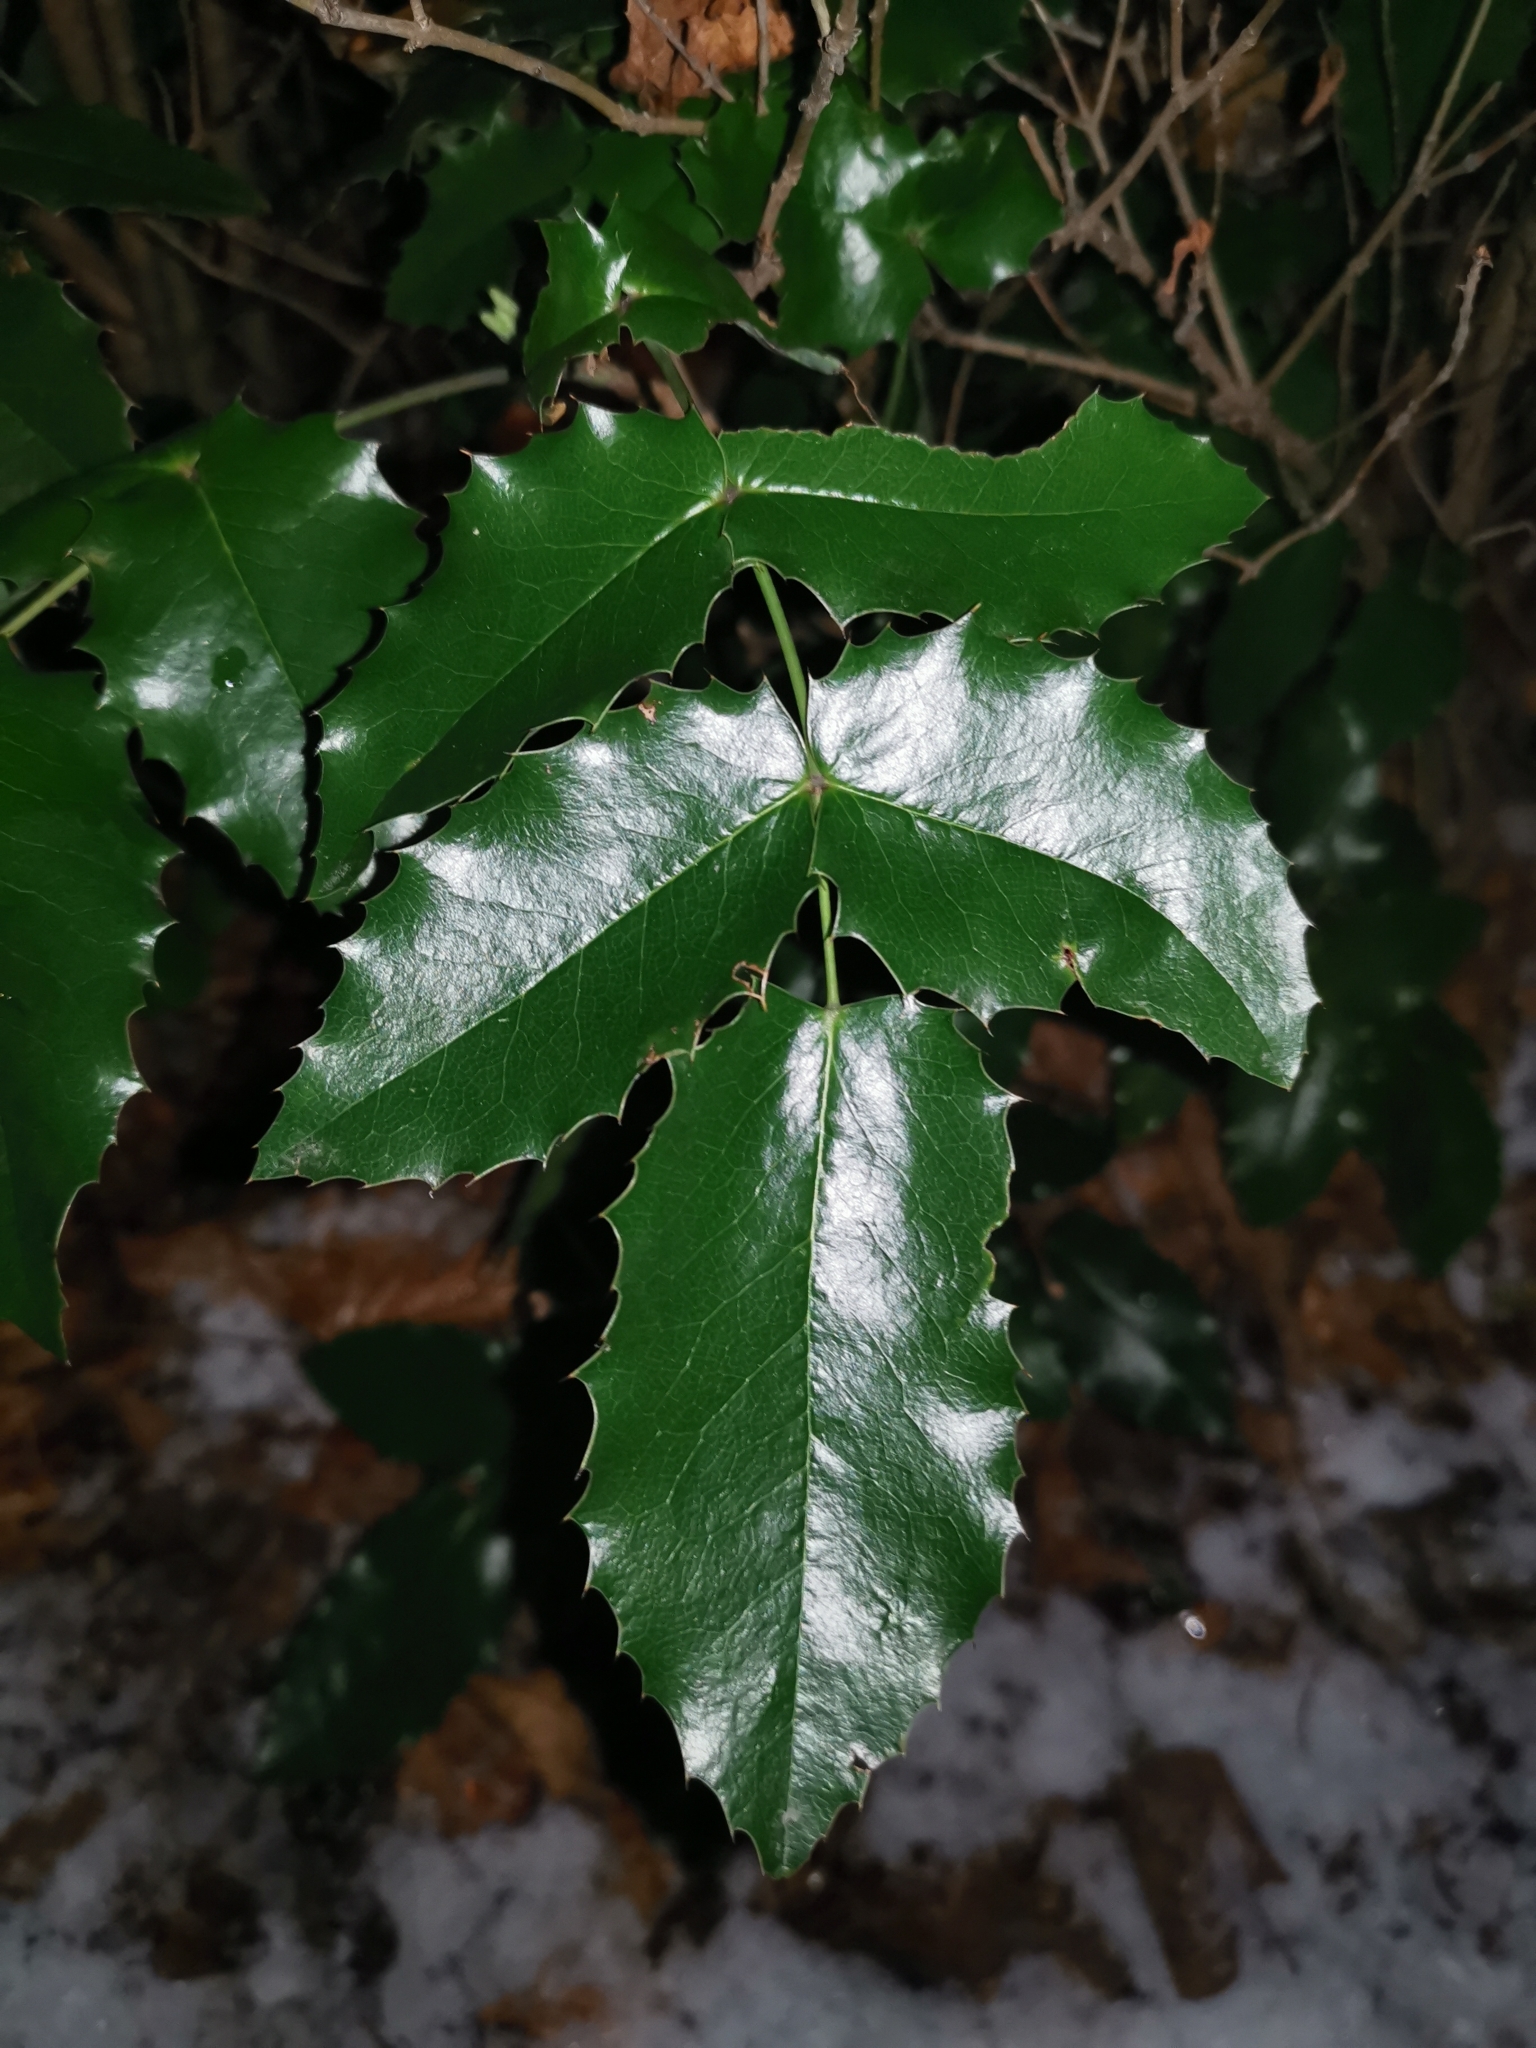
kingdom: Plantae
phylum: Tracheophyta
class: Magnoliopsida
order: Ranunculales
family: Berberidaceae
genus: Mahonia
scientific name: Mahonia aquifolium
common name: Oregon-grape
